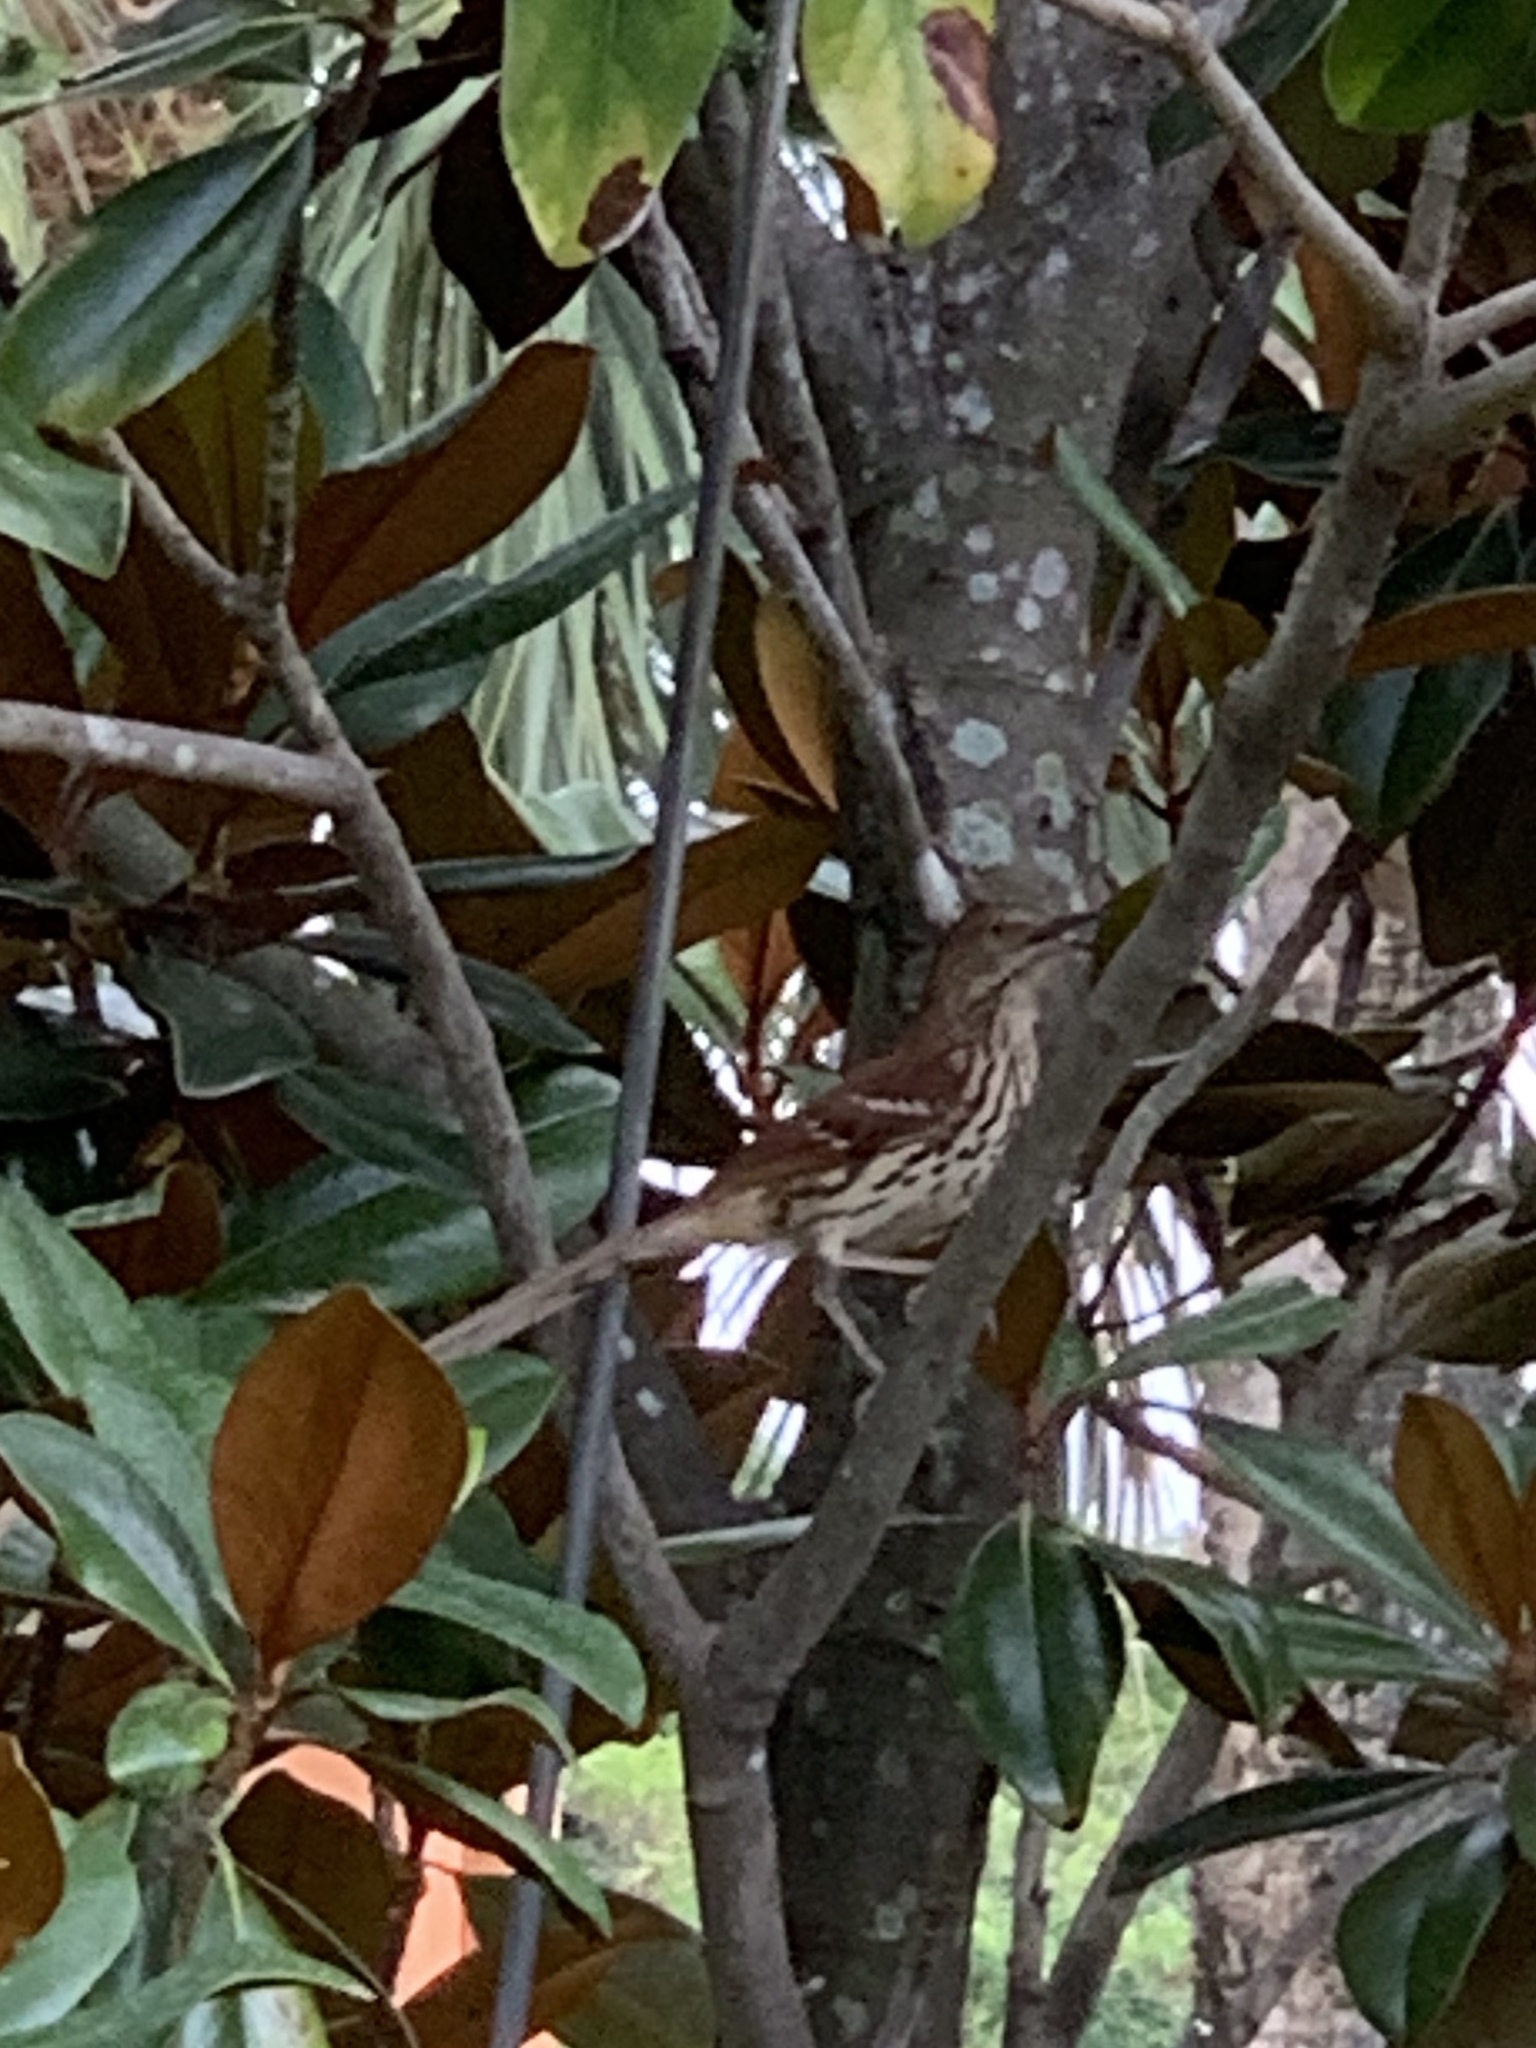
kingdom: Animalia
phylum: Chordata
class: Aves
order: Passeriformes
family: Mimidae
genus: Toxostoma
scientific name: Toxostoma rufum
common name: Brown thrasher
